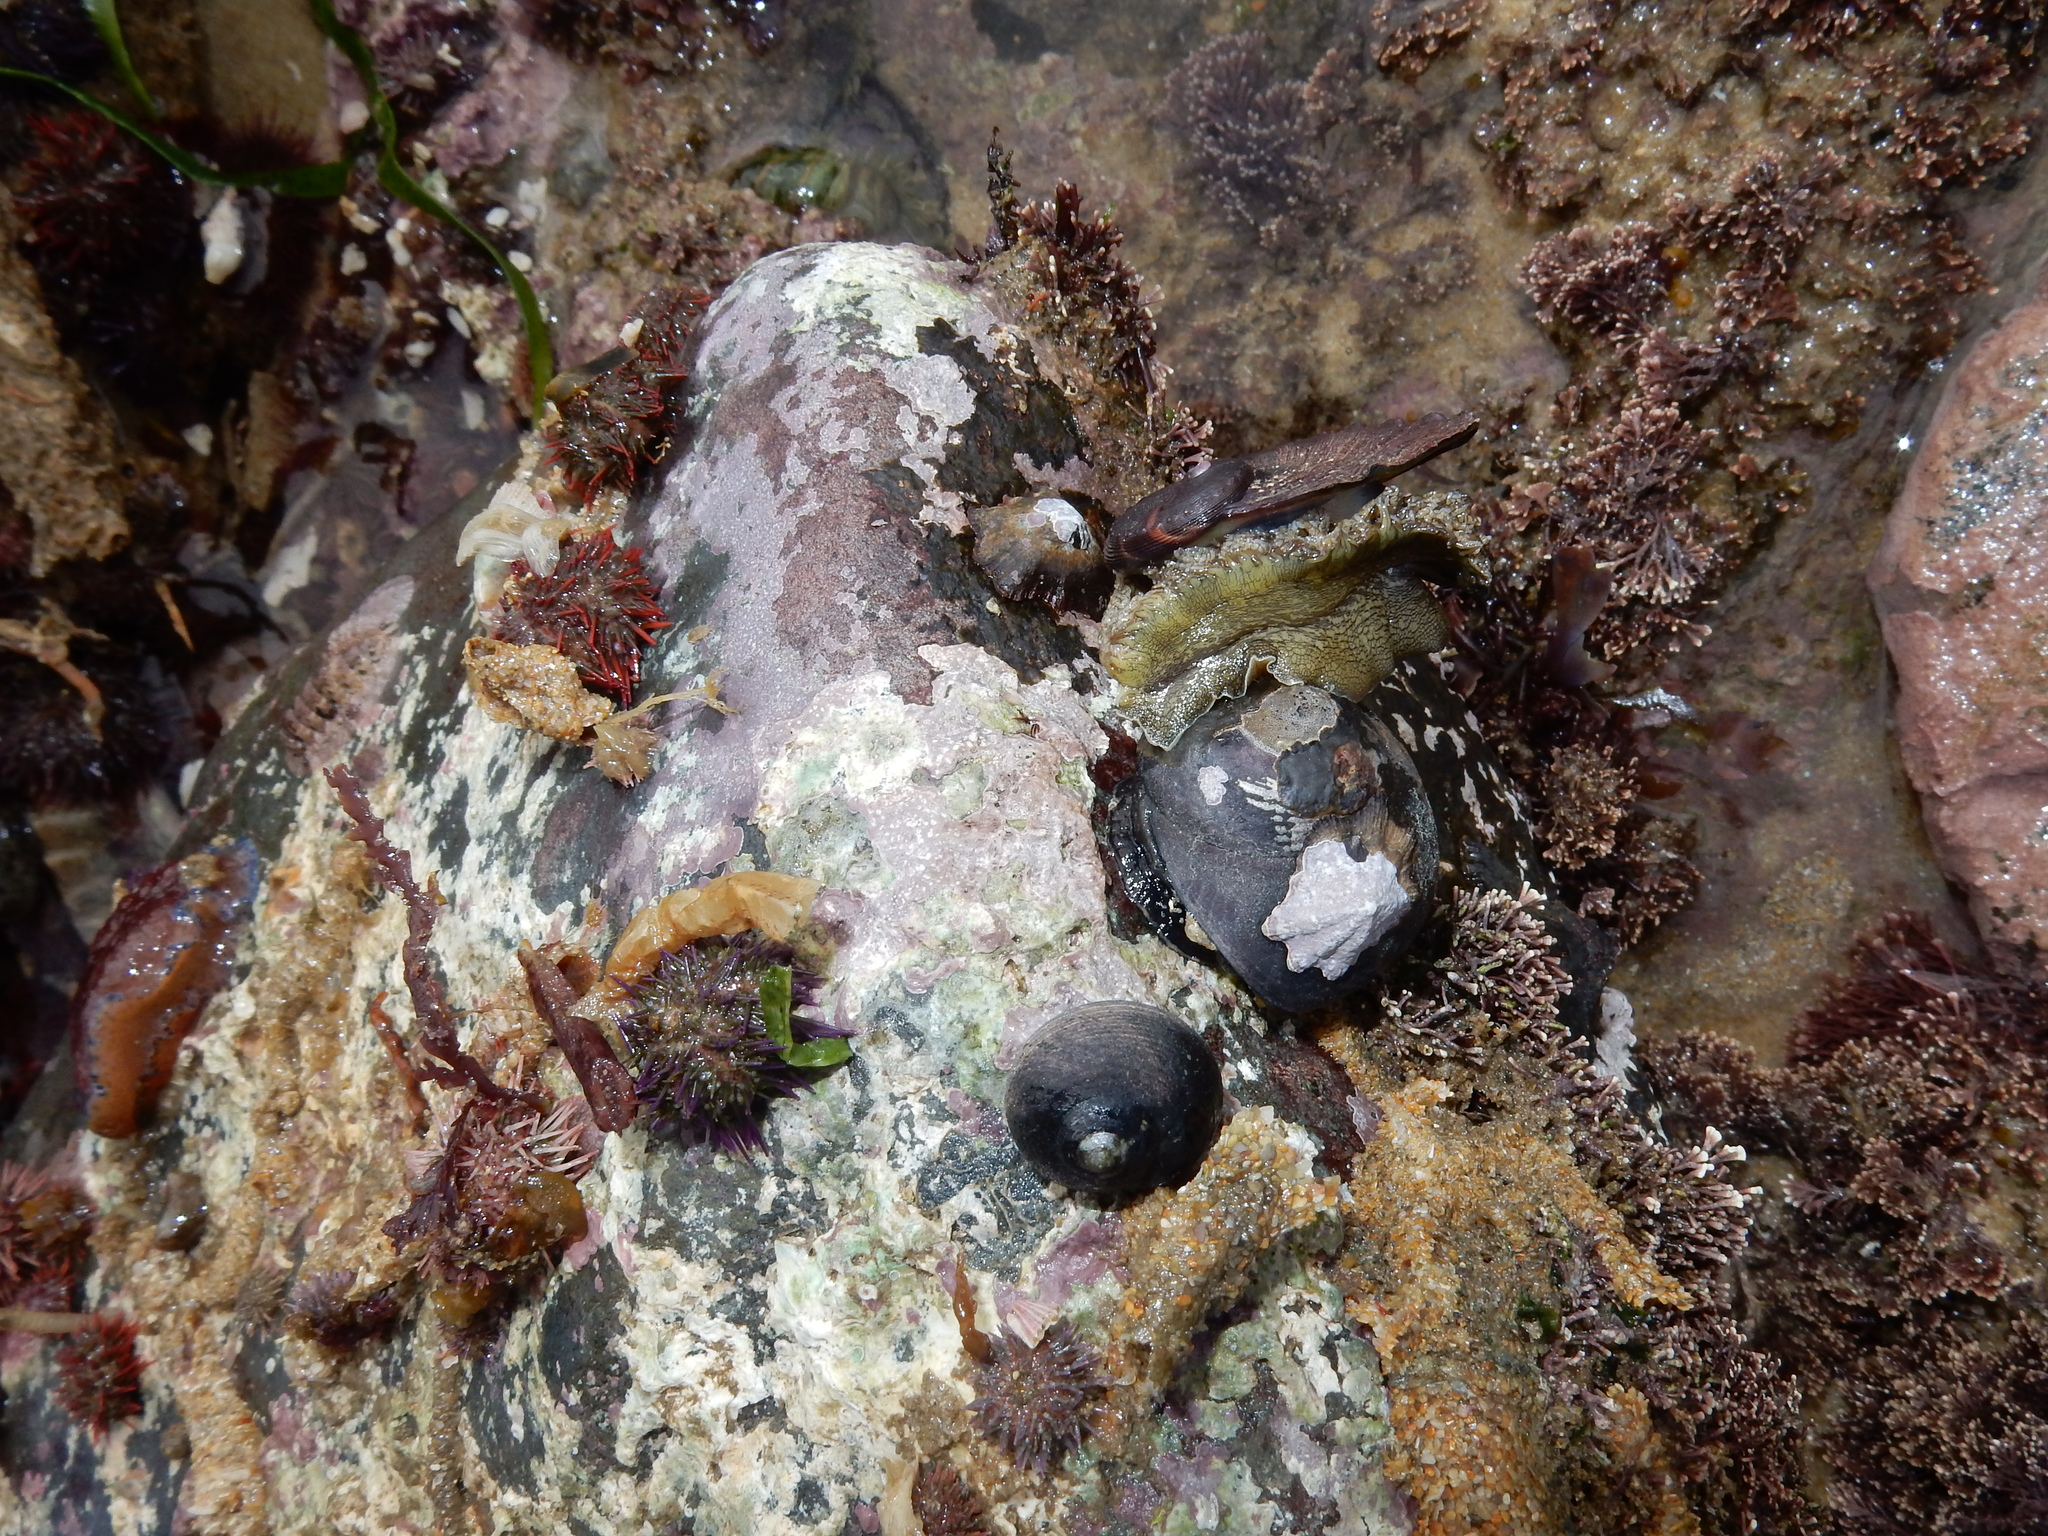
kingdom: Animalia
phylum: Mollusca
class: Gastropoda
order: Lepetellida
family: Haliotidae
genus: Haliotis
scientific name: Haliotis spadicea
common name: Siffie
